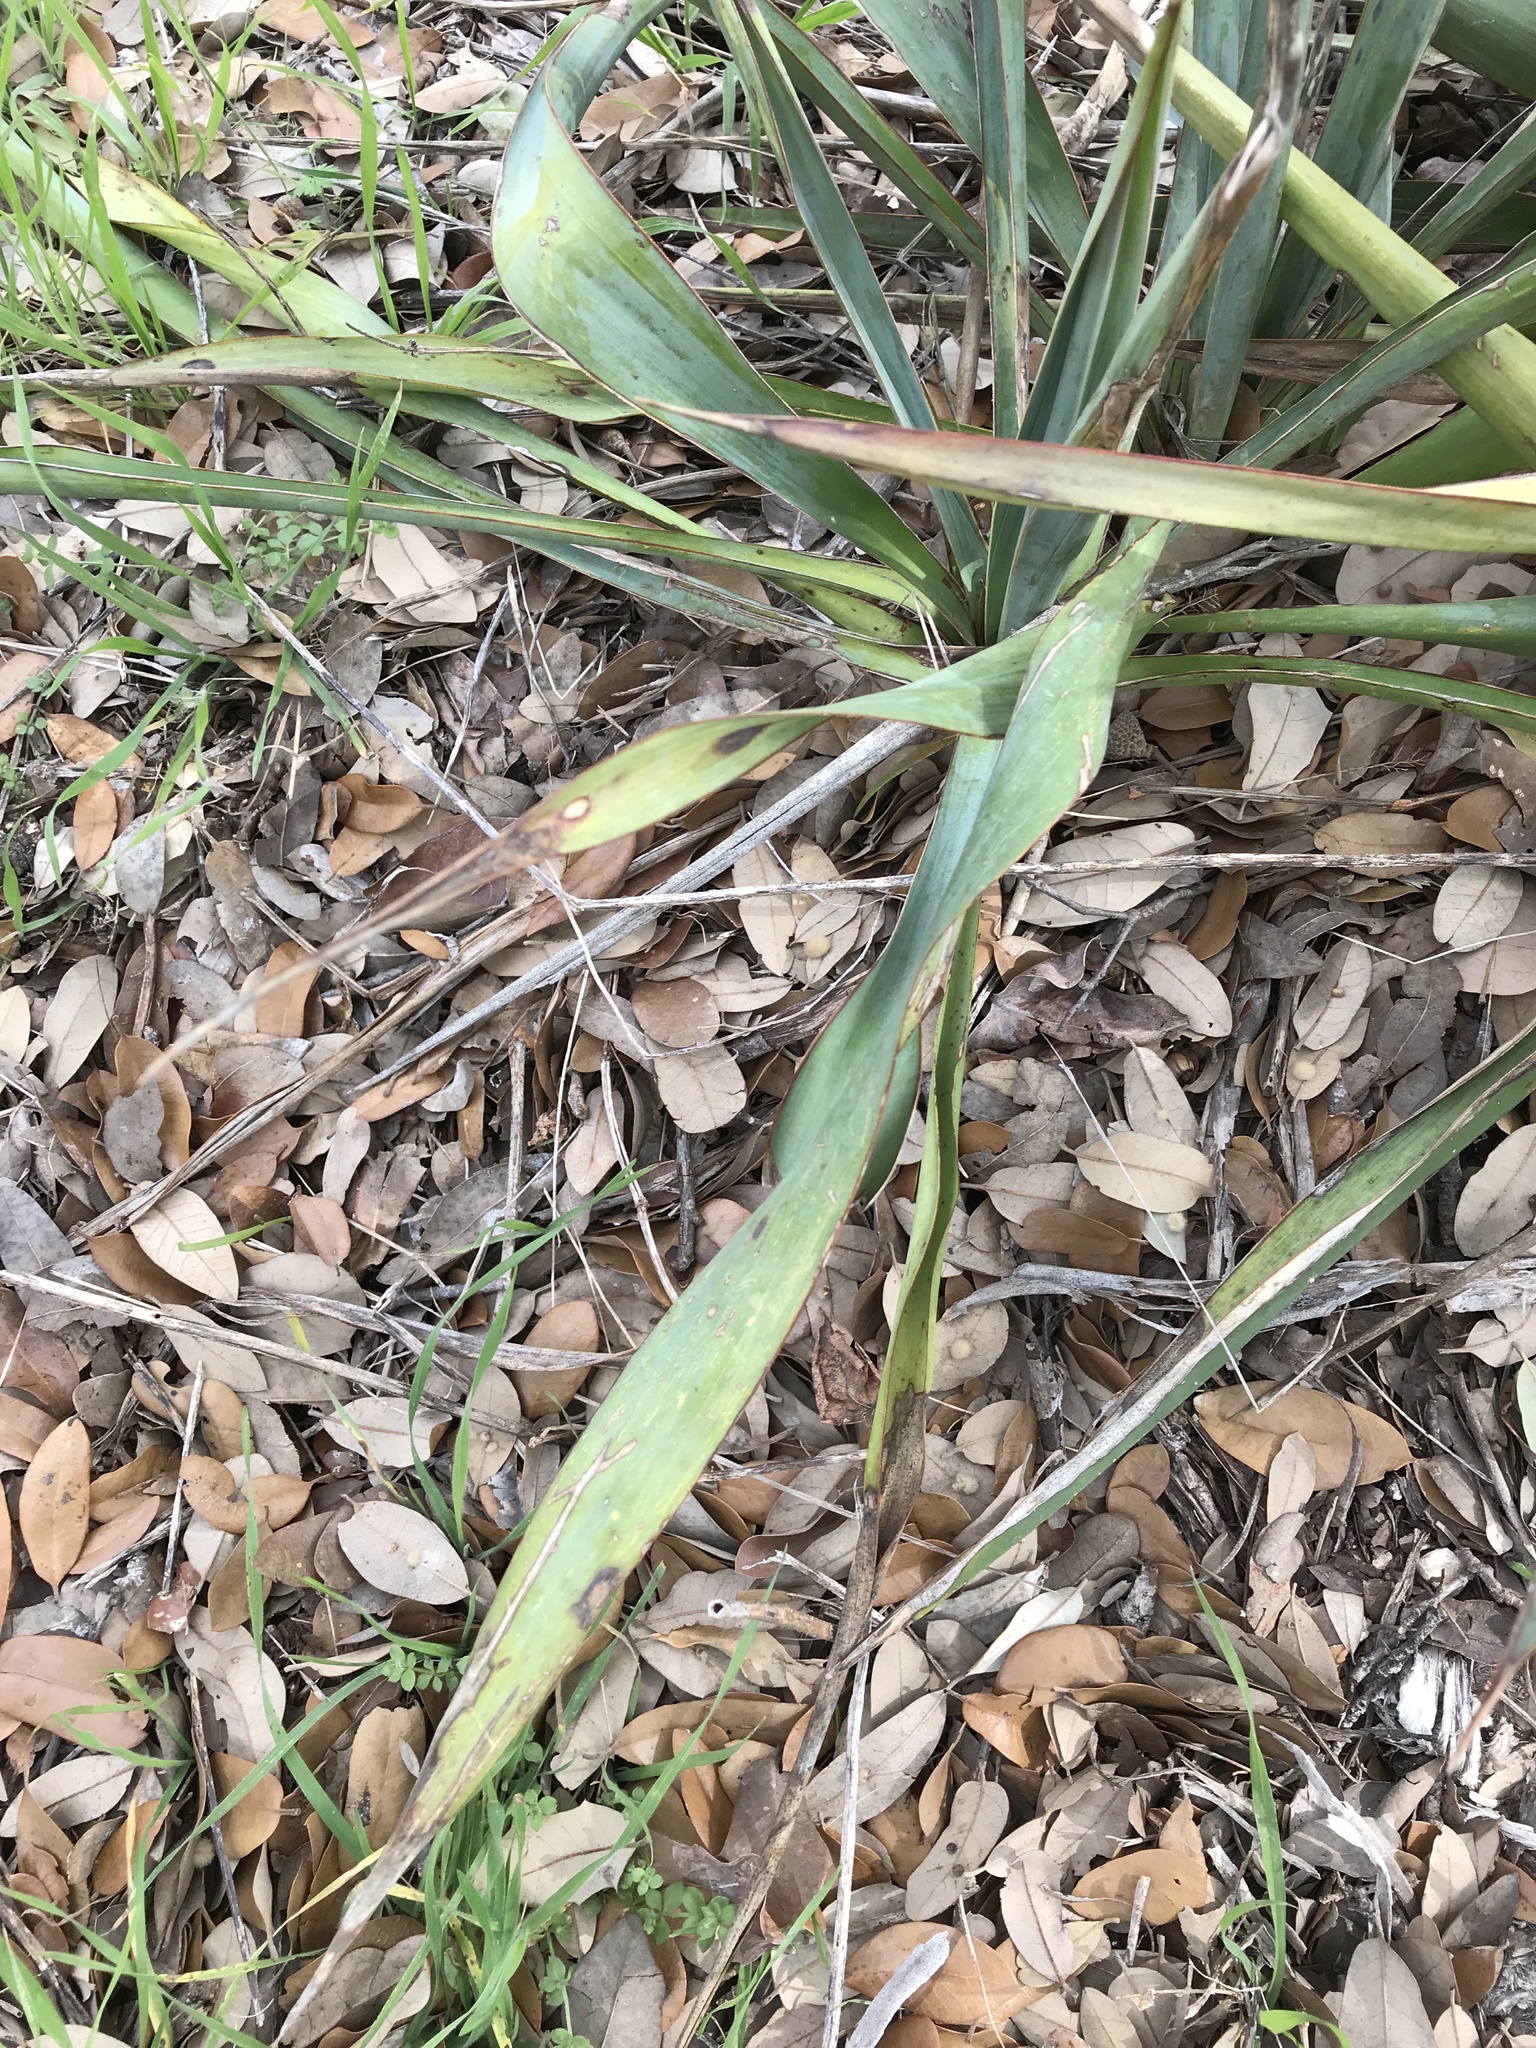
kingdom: Plantae
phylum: Tracheophyta
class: Liliopsida
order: Asparagales
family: Asparagaceae
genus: Yucca
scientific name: Yucca rupicola
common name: Twisted-leaf spanish-dagger
